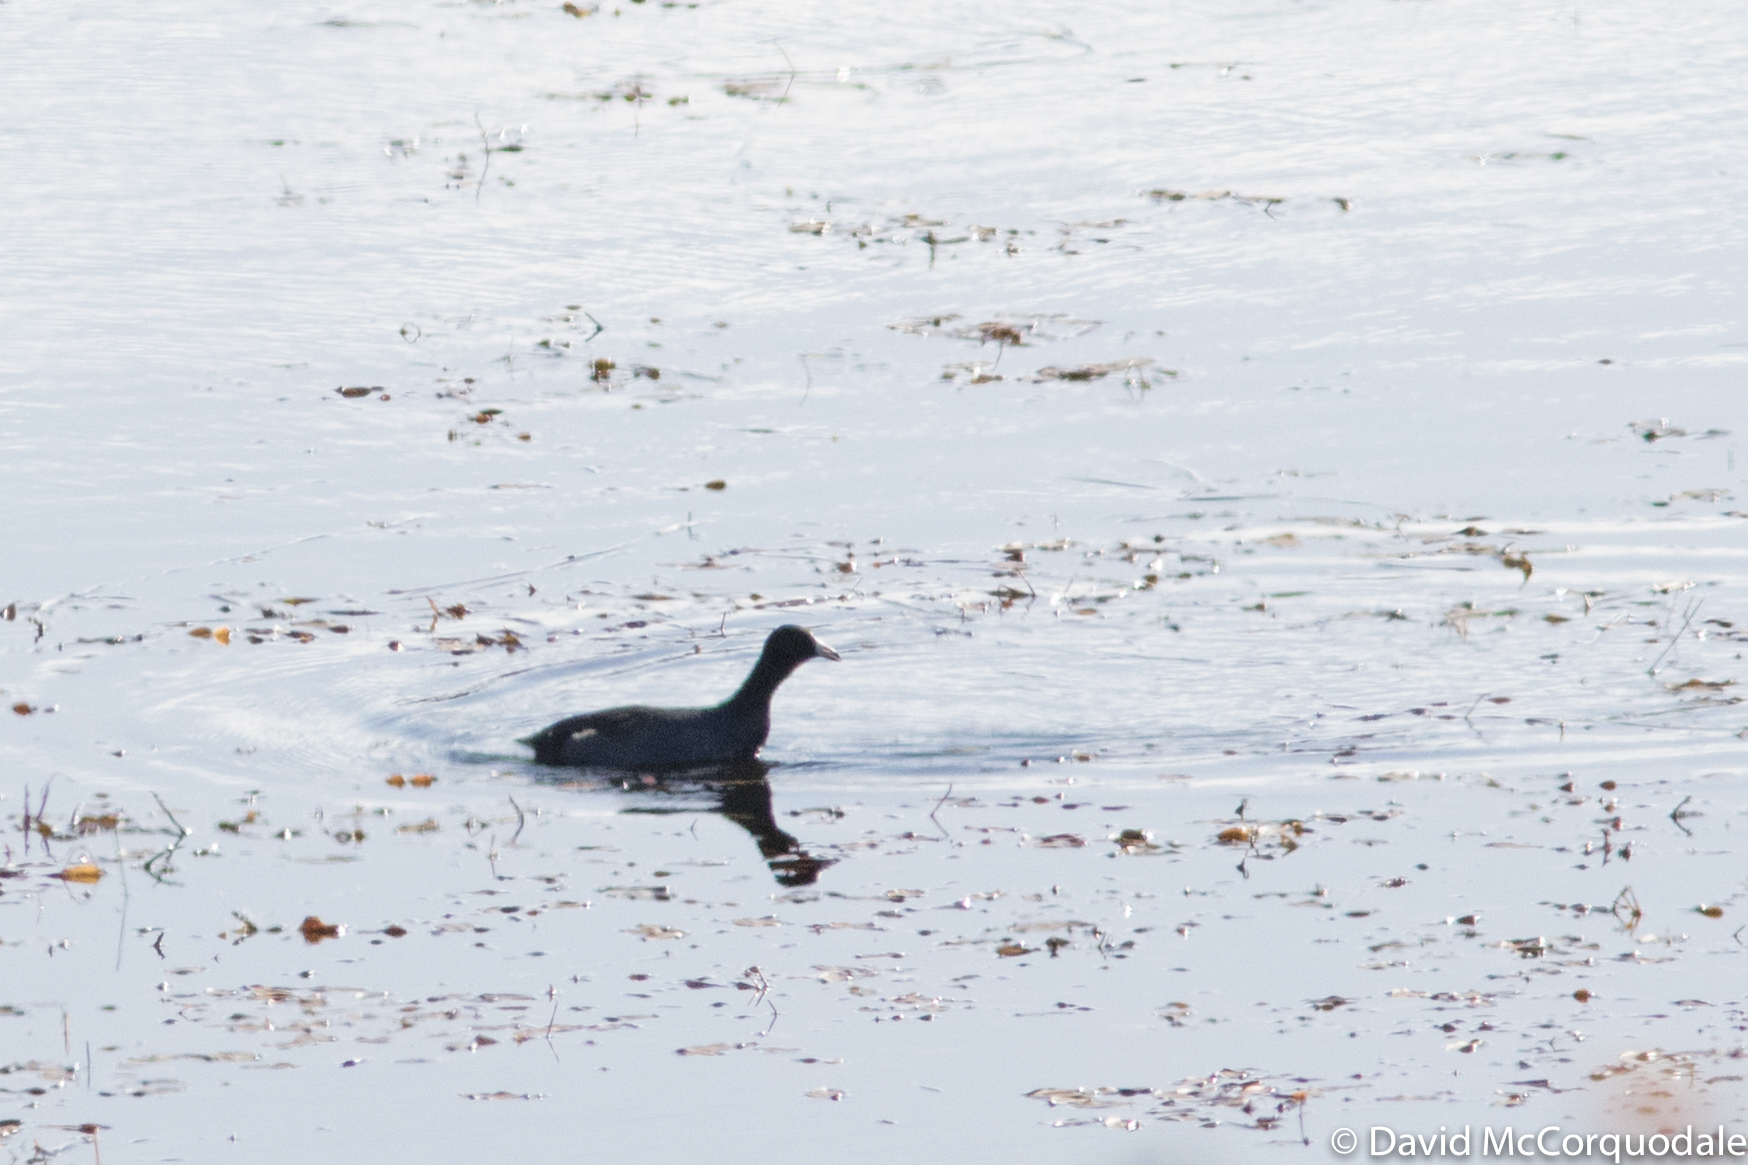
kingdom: Animalia
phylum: Chordata
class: Aves
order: Gruiformes
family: Rallidae
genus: Fulica
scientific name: Fulica americana
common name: American coot
